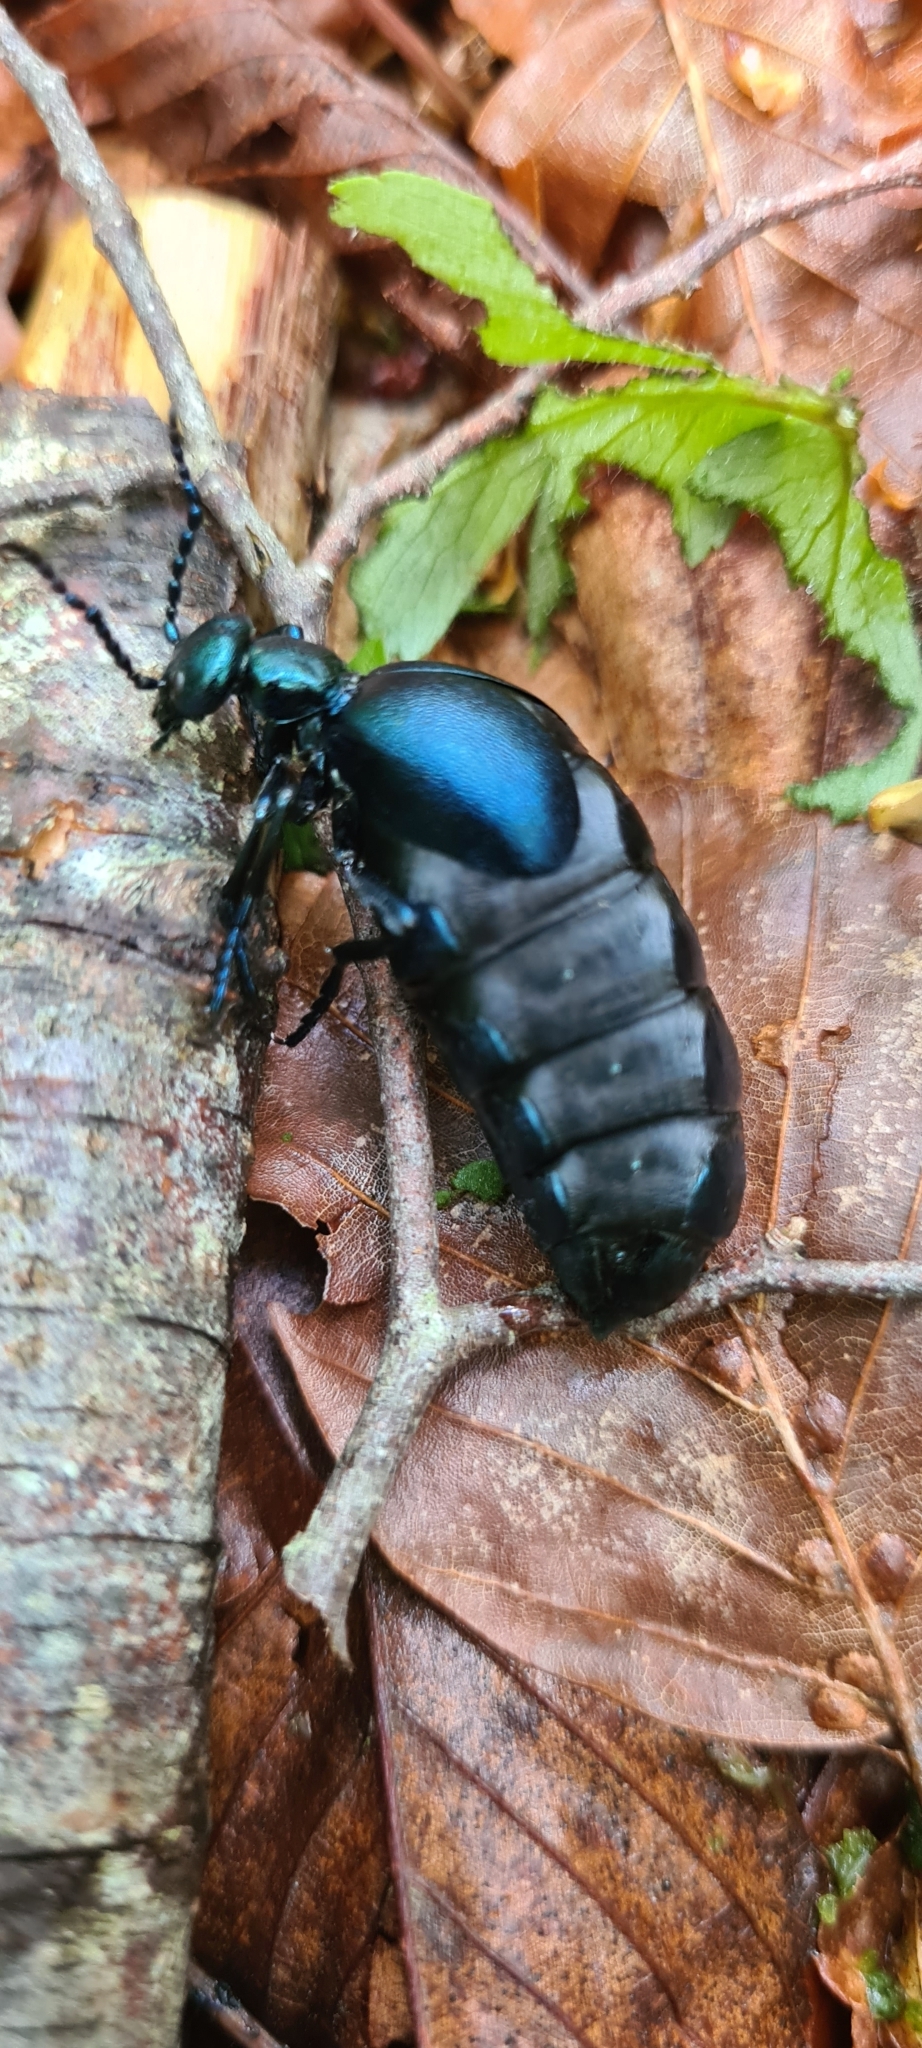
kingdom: Animalia
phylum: Arthropoda
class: Insecta
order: Coleoptera
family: Meloidae
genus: Meloe
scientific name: Meloe violaceus
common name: Violet oil-beetle
